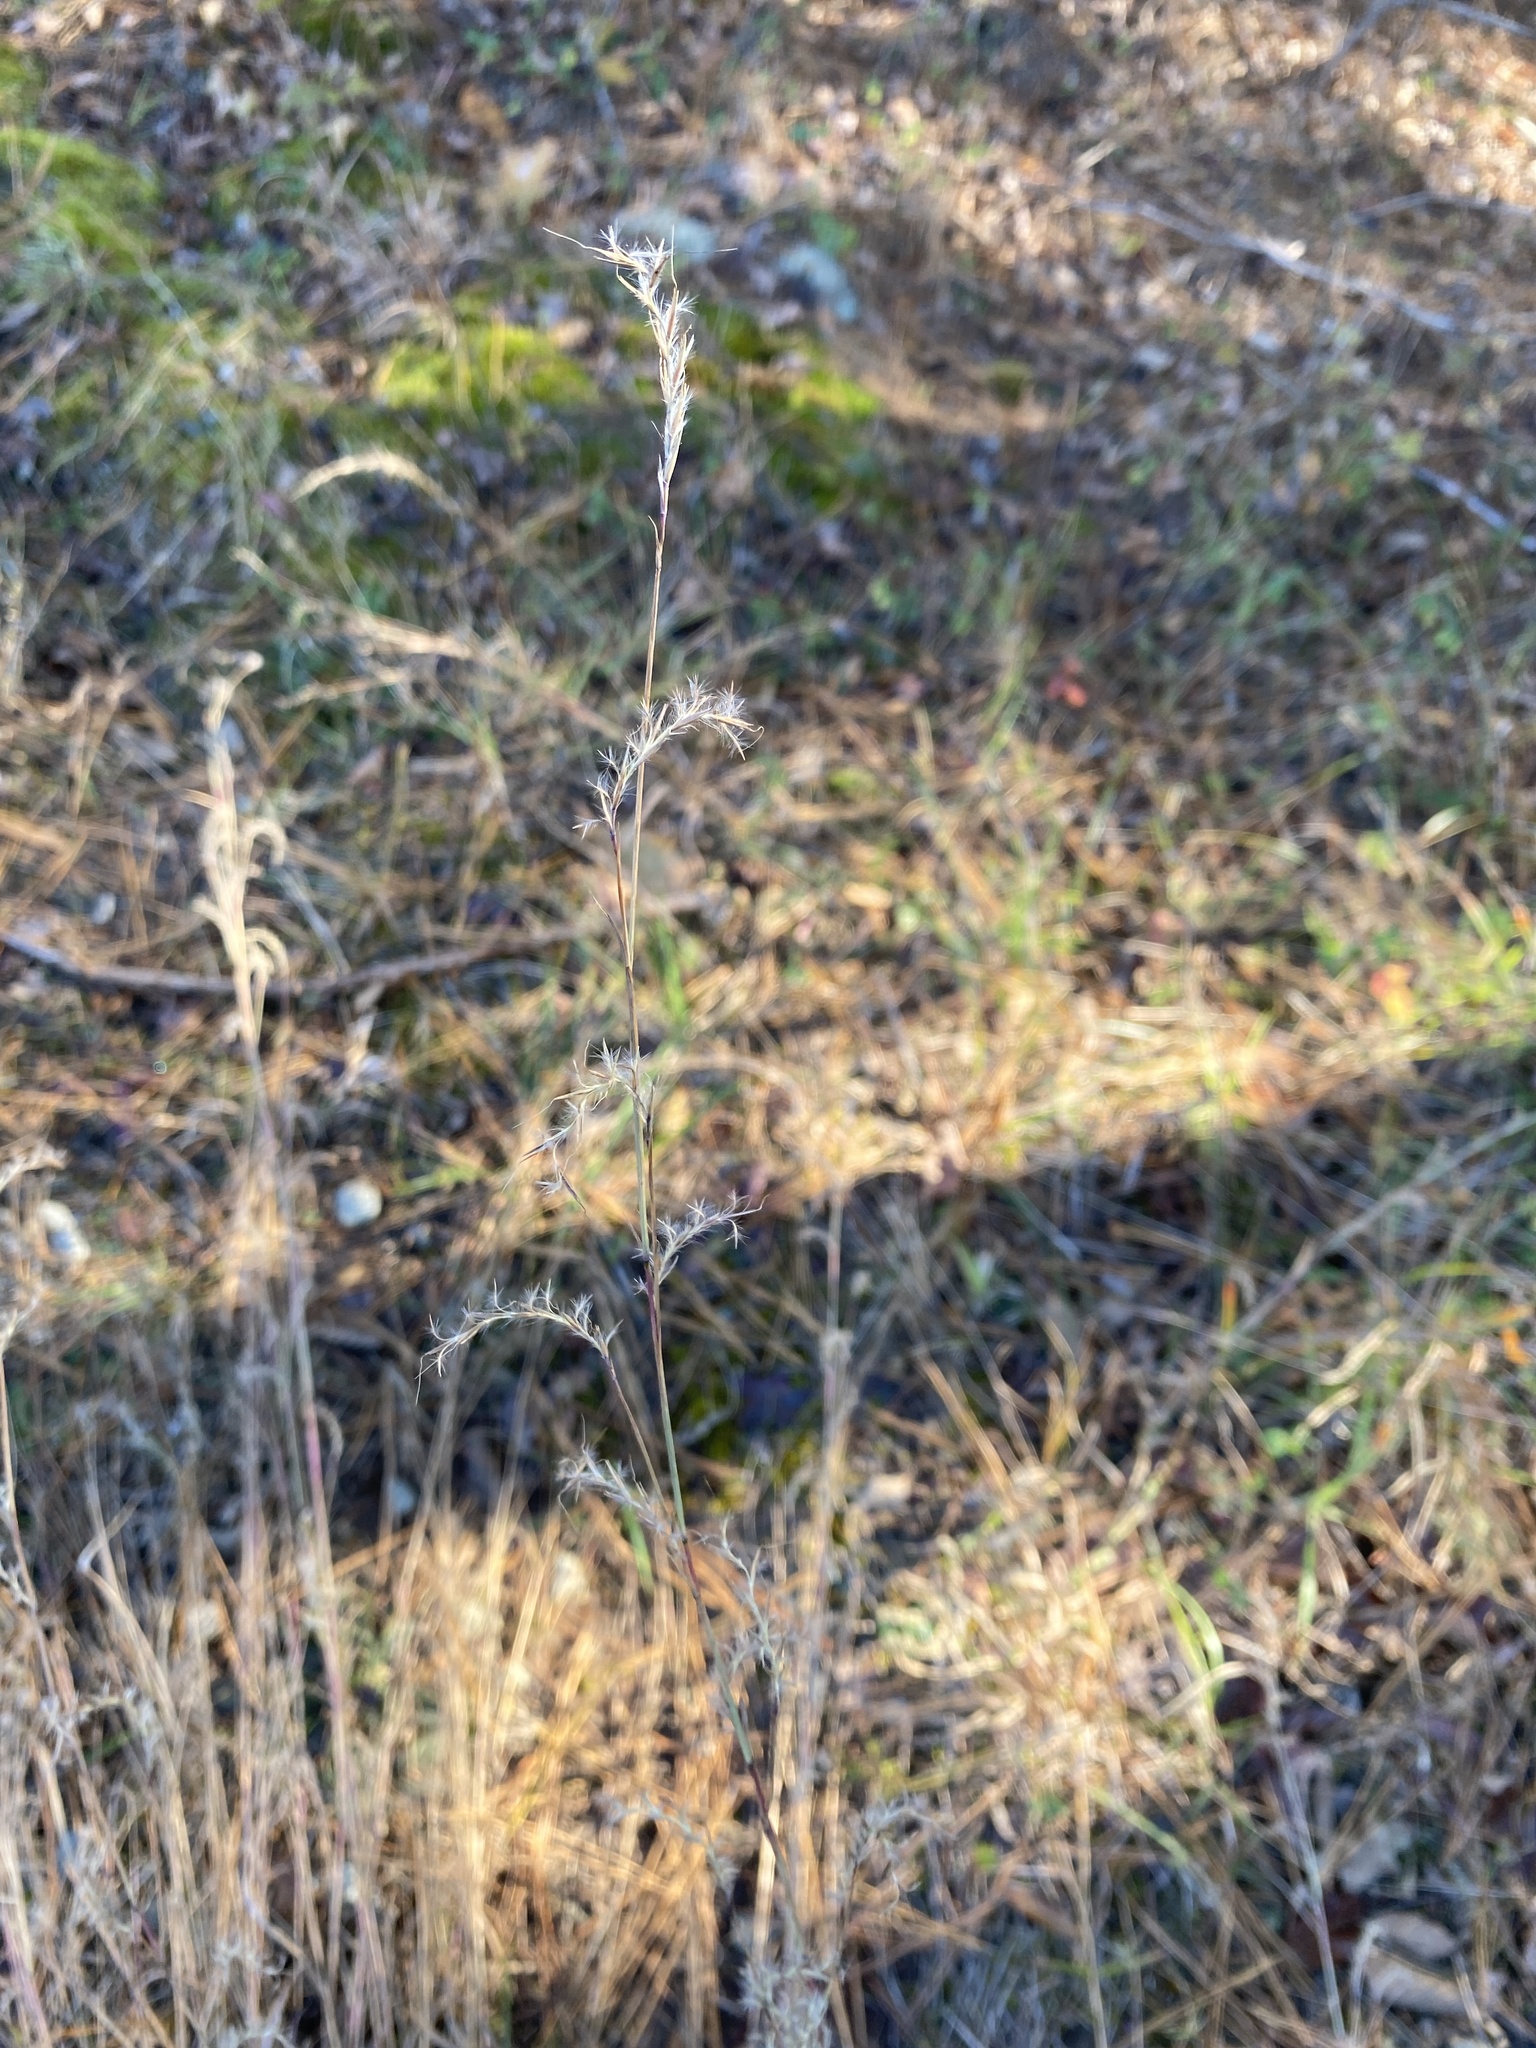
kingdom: Plantae
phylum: Tracheophyta
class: Liliopsida
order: Poales
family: Poaceae
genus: Schizachyrium
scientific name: Schizachyrium scoparium
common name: Little bluestem
